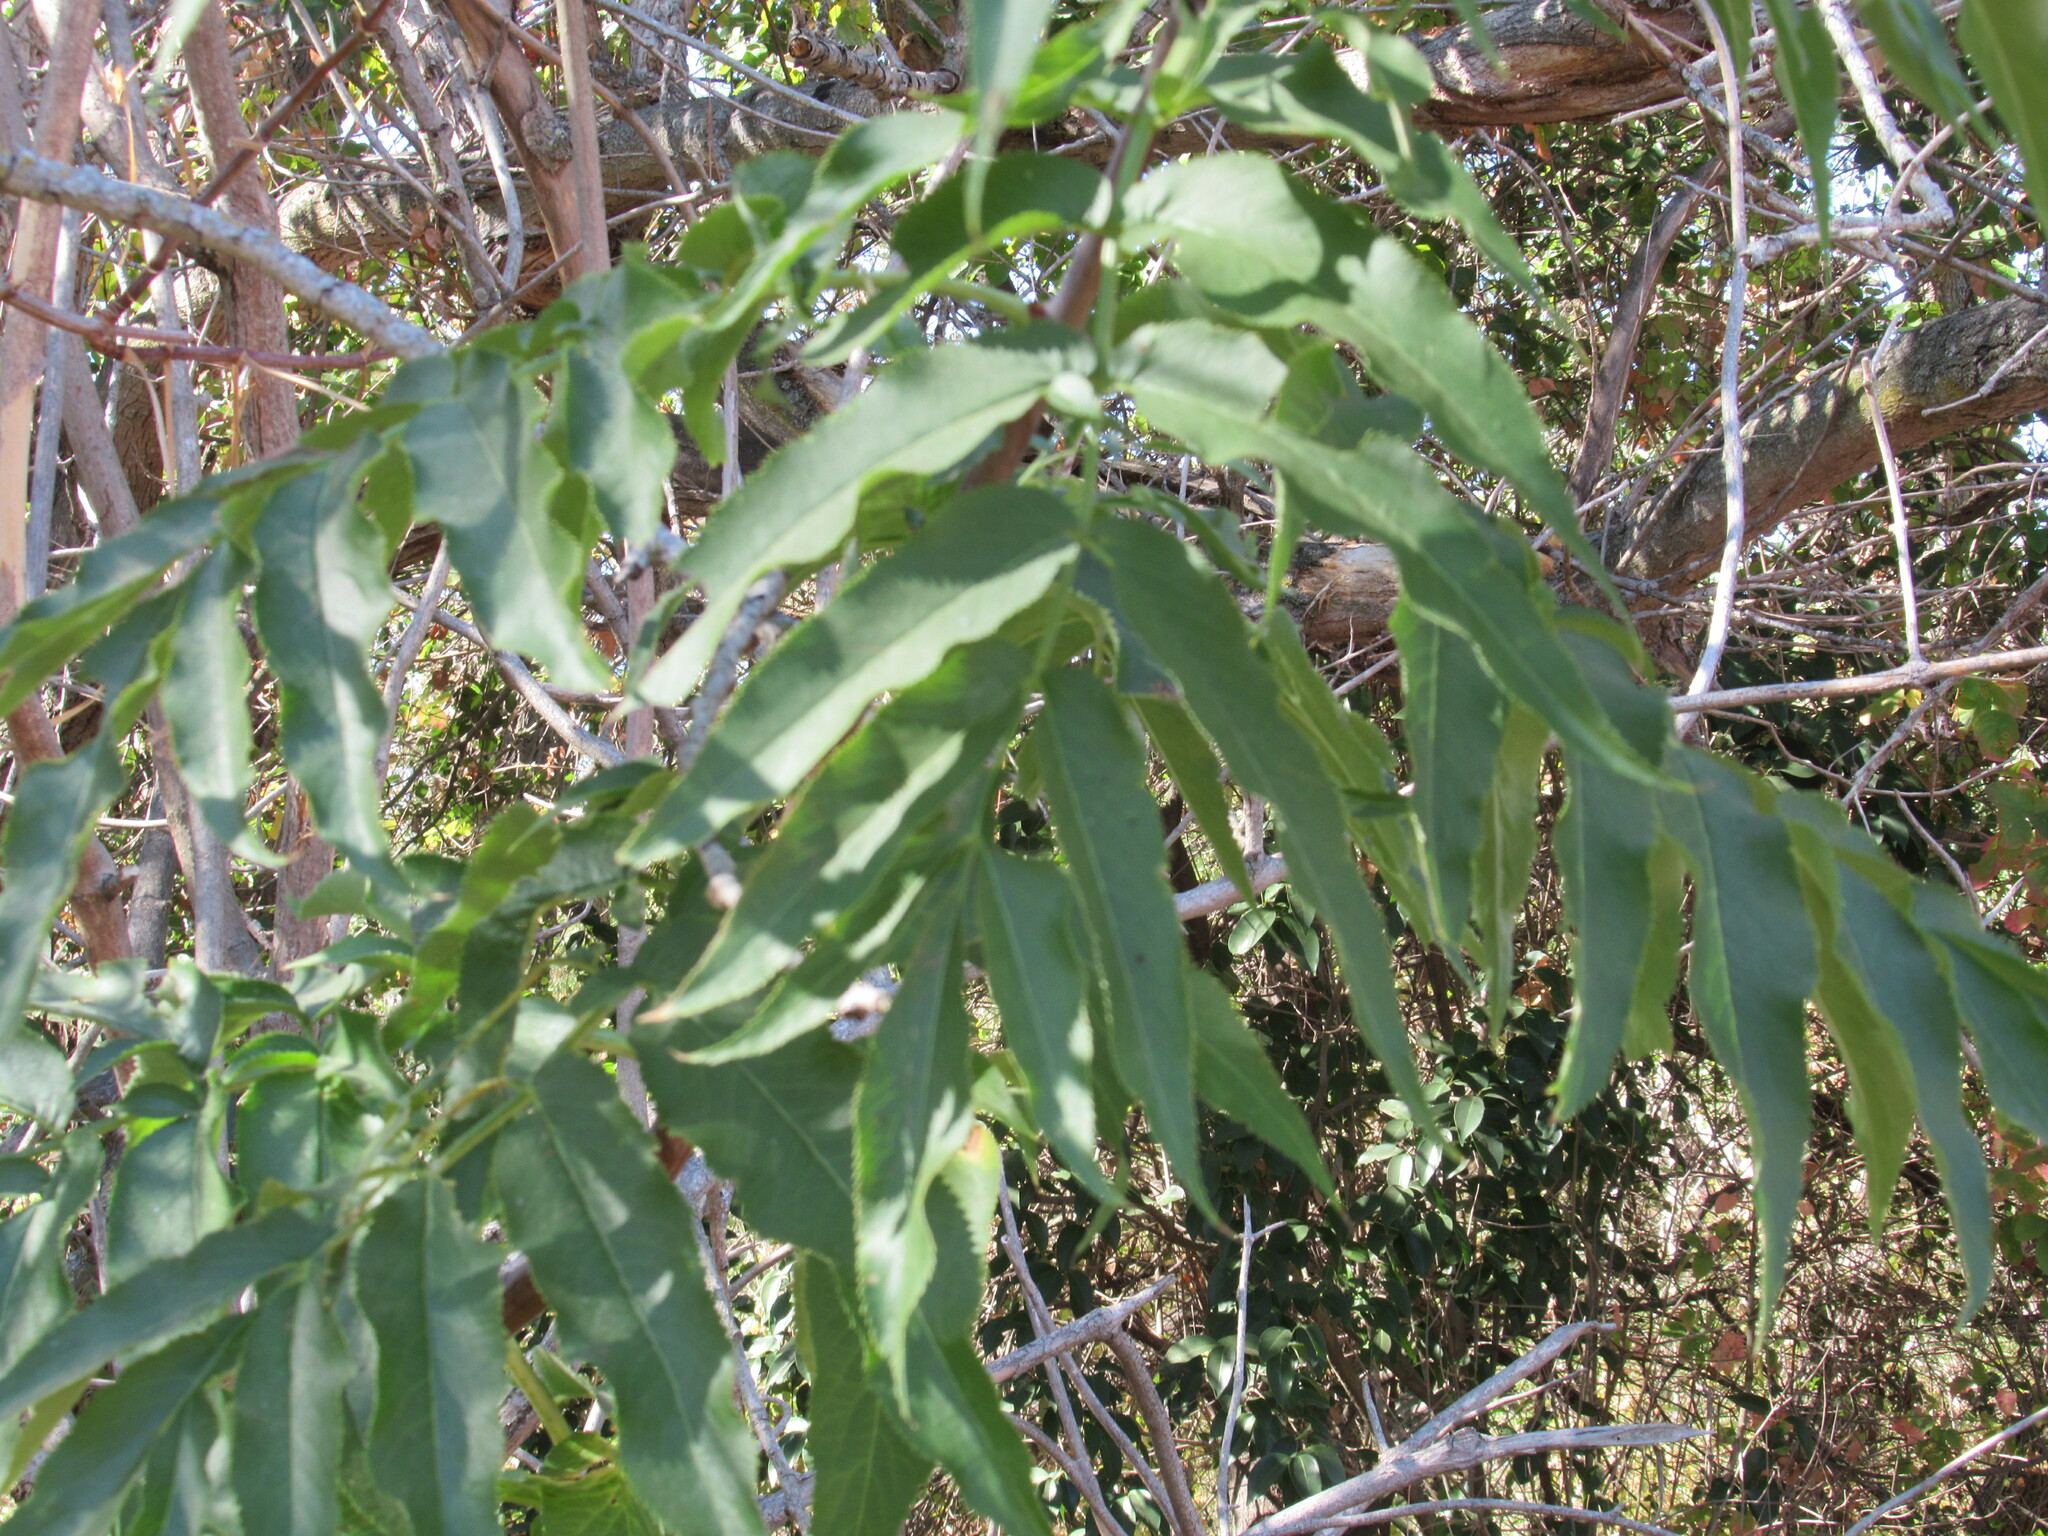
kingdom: Plantae
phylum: Tracheophyta
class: Magnoliopsida
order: Dipsacales
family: Viburnaceae
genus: Sambucus
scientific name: Sambucus cerulea
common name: Blue elder
